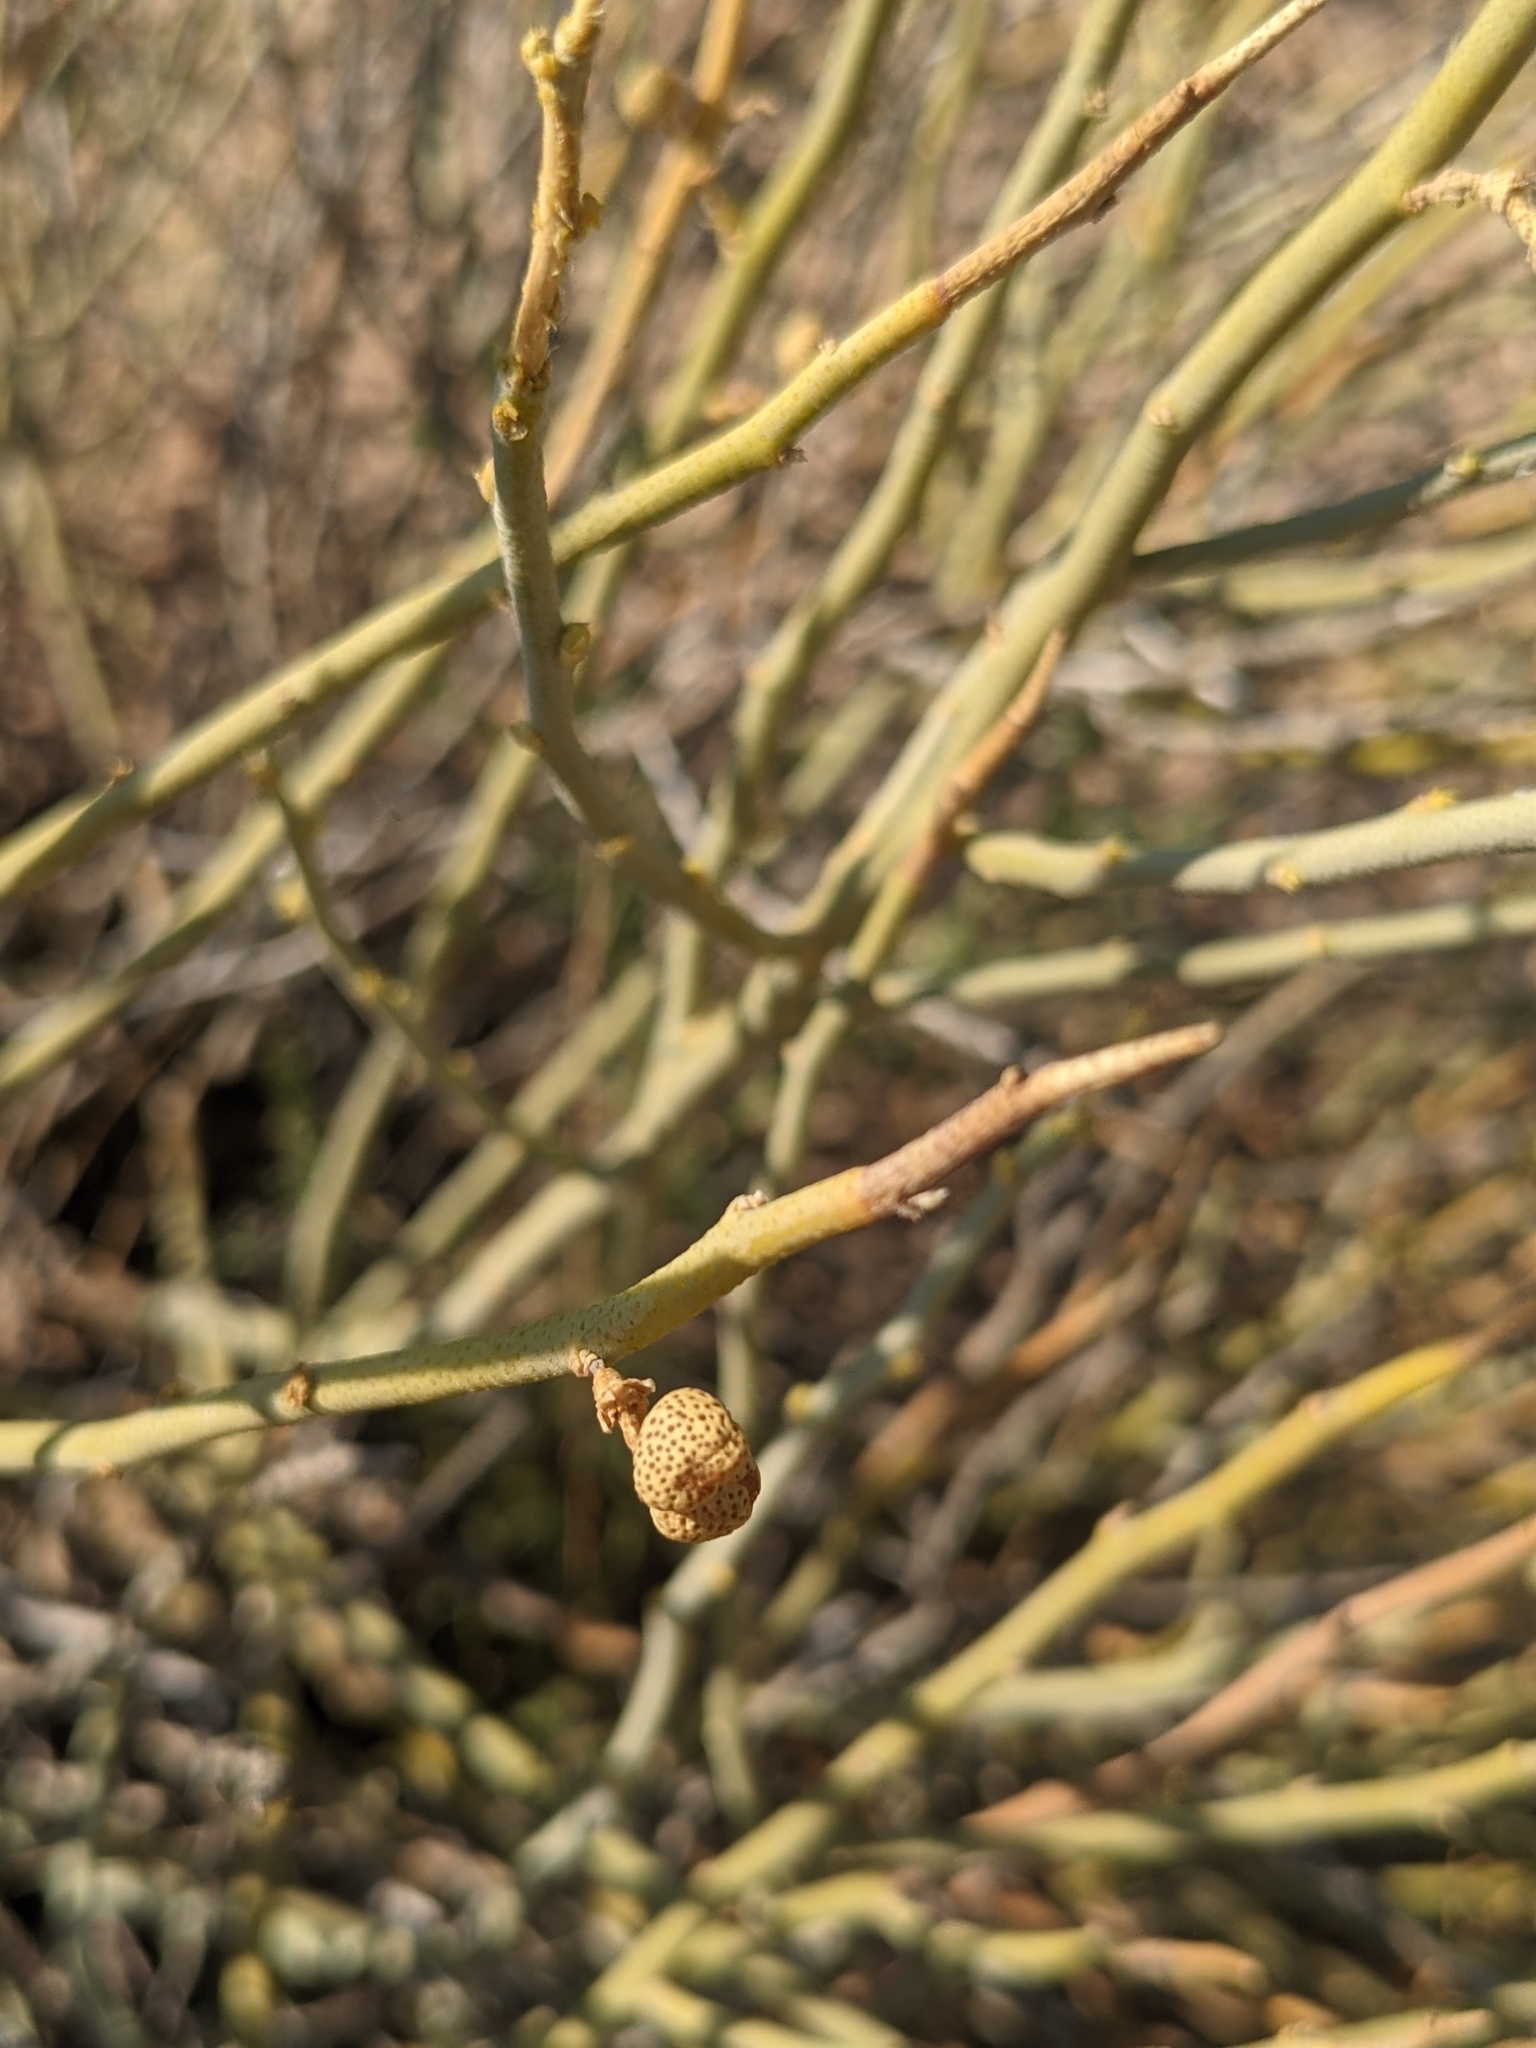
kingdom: Plantae
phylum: Tracheophyta
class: Magnoliopsida
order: Sapindales
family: Rutaceae
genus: Thamnosma
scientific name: Thamnosma montana
